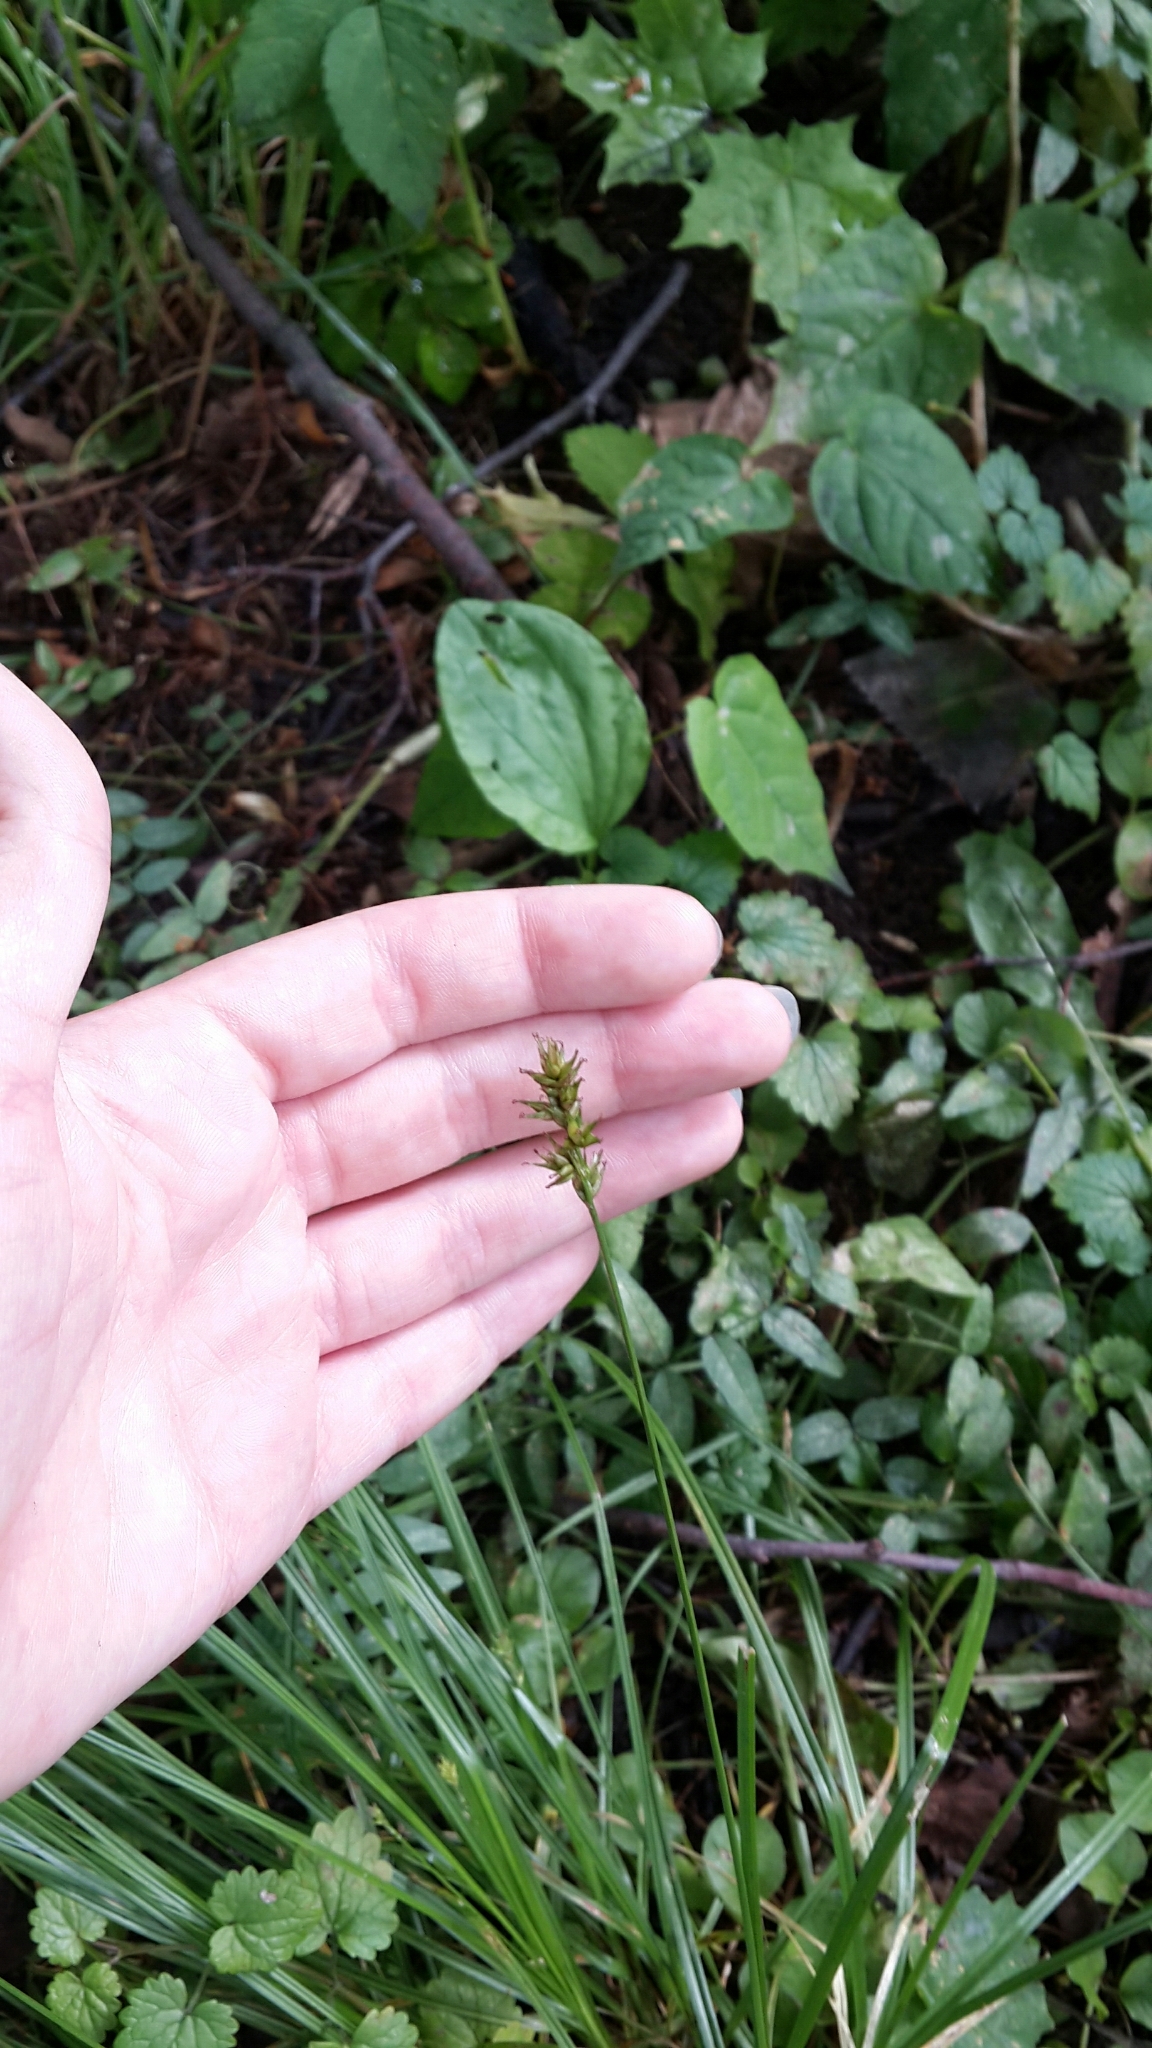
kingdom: Plantae
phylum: Tracheophyta
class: Liliopsida
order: Poales
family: Cyperaceae
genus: Carex
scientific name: Carex spicata
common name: Spiked sedge
